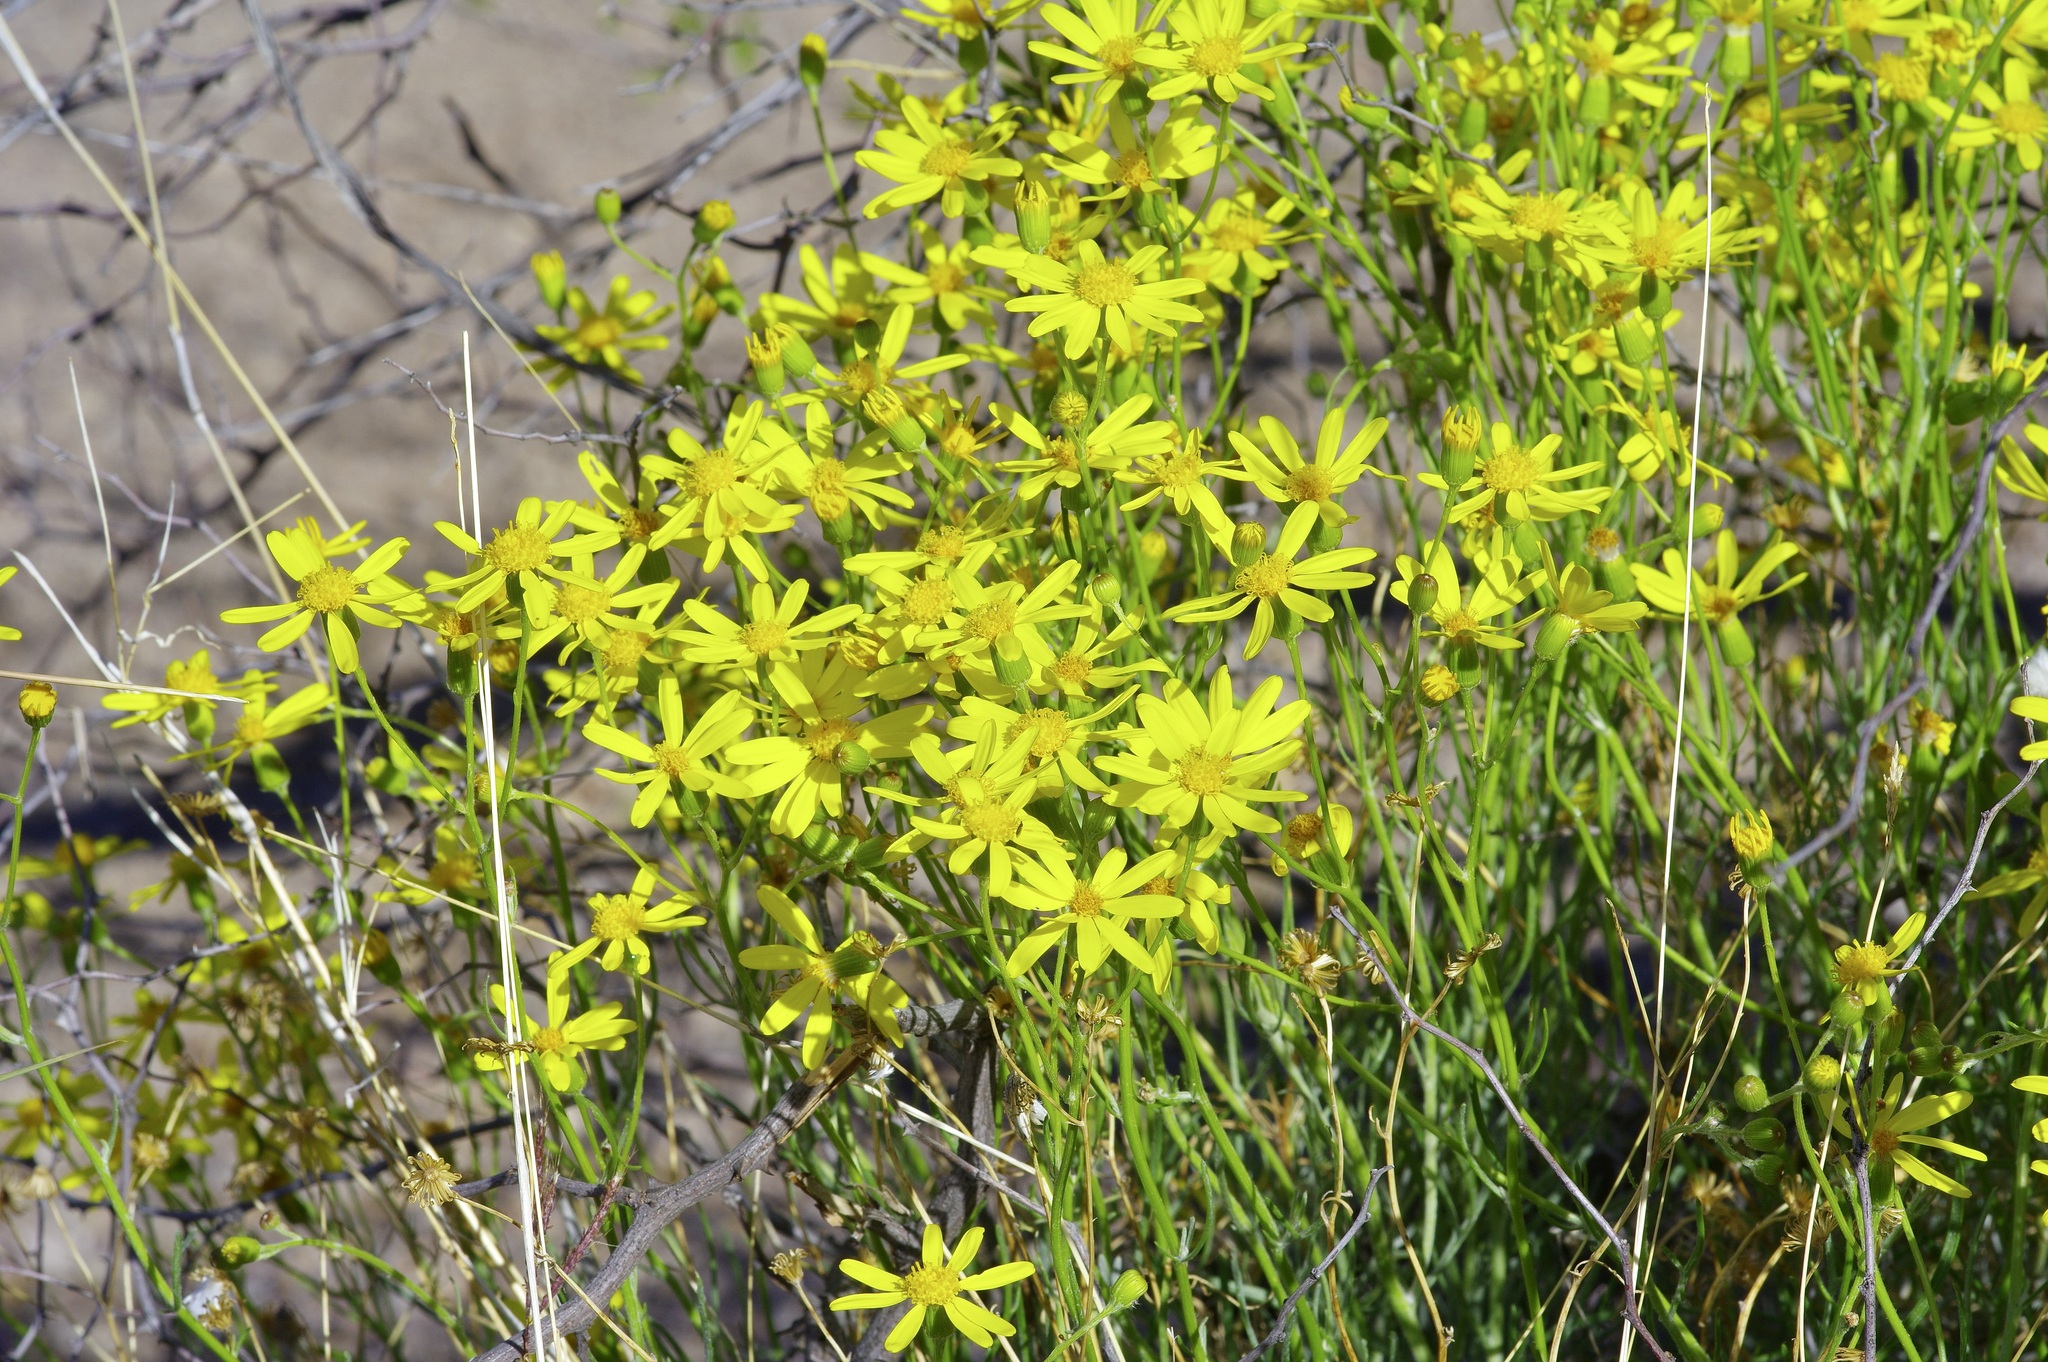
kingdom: Plantae
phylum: Tracheophyta
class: Magnoliopsida
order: Asterales
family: Asteraceae
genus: Senecio
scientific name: Senecio flaccidus
